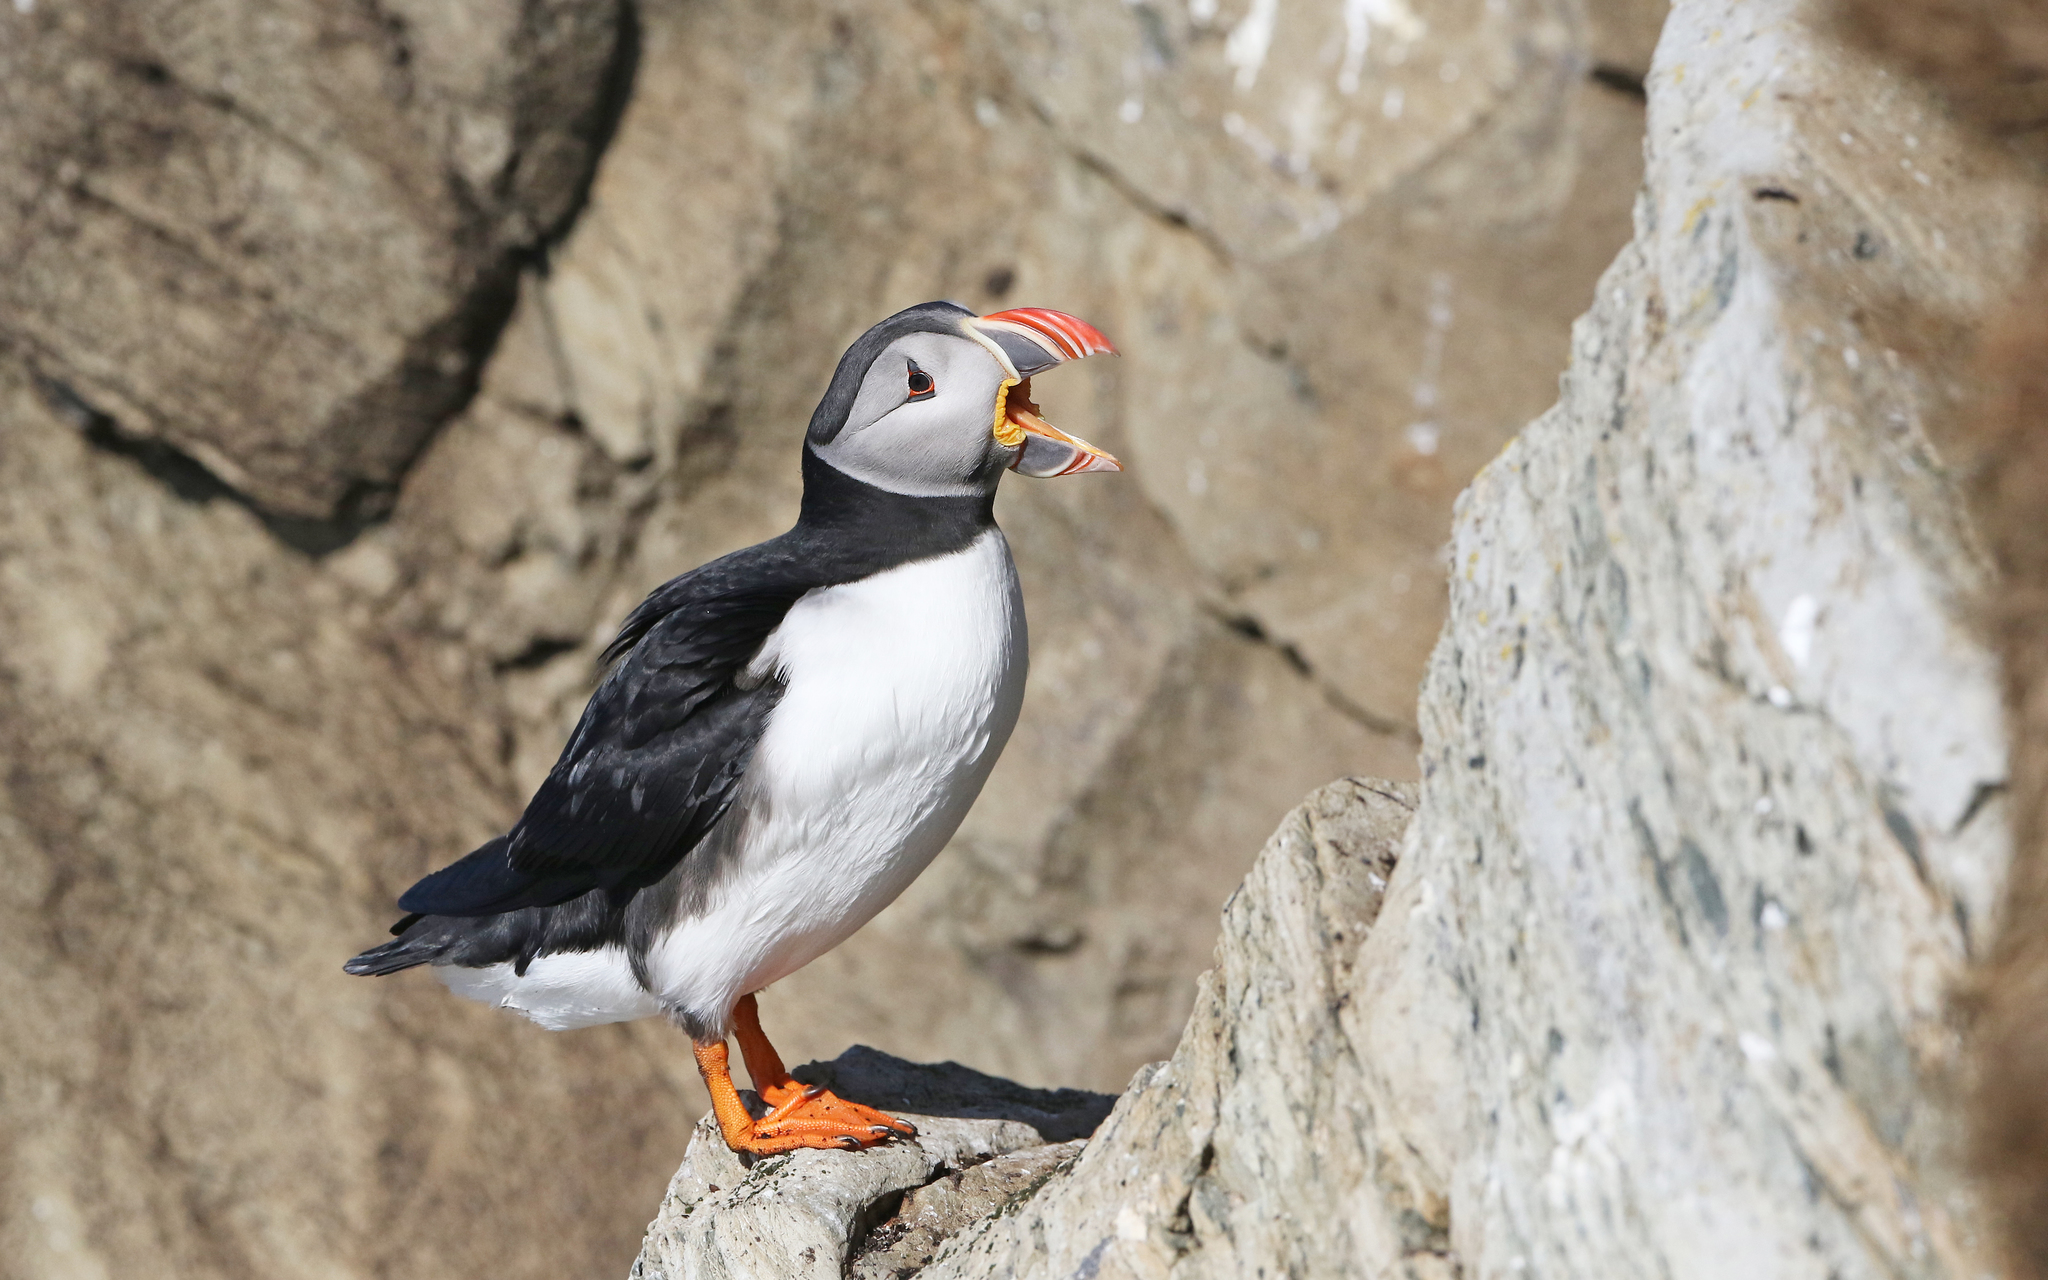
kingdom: Animalia
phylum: Chordata
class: Aves
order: Charadriiformes
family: Alcidae
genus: Fratercula
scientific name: Fratercula arctica
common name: Atlantic puffin
